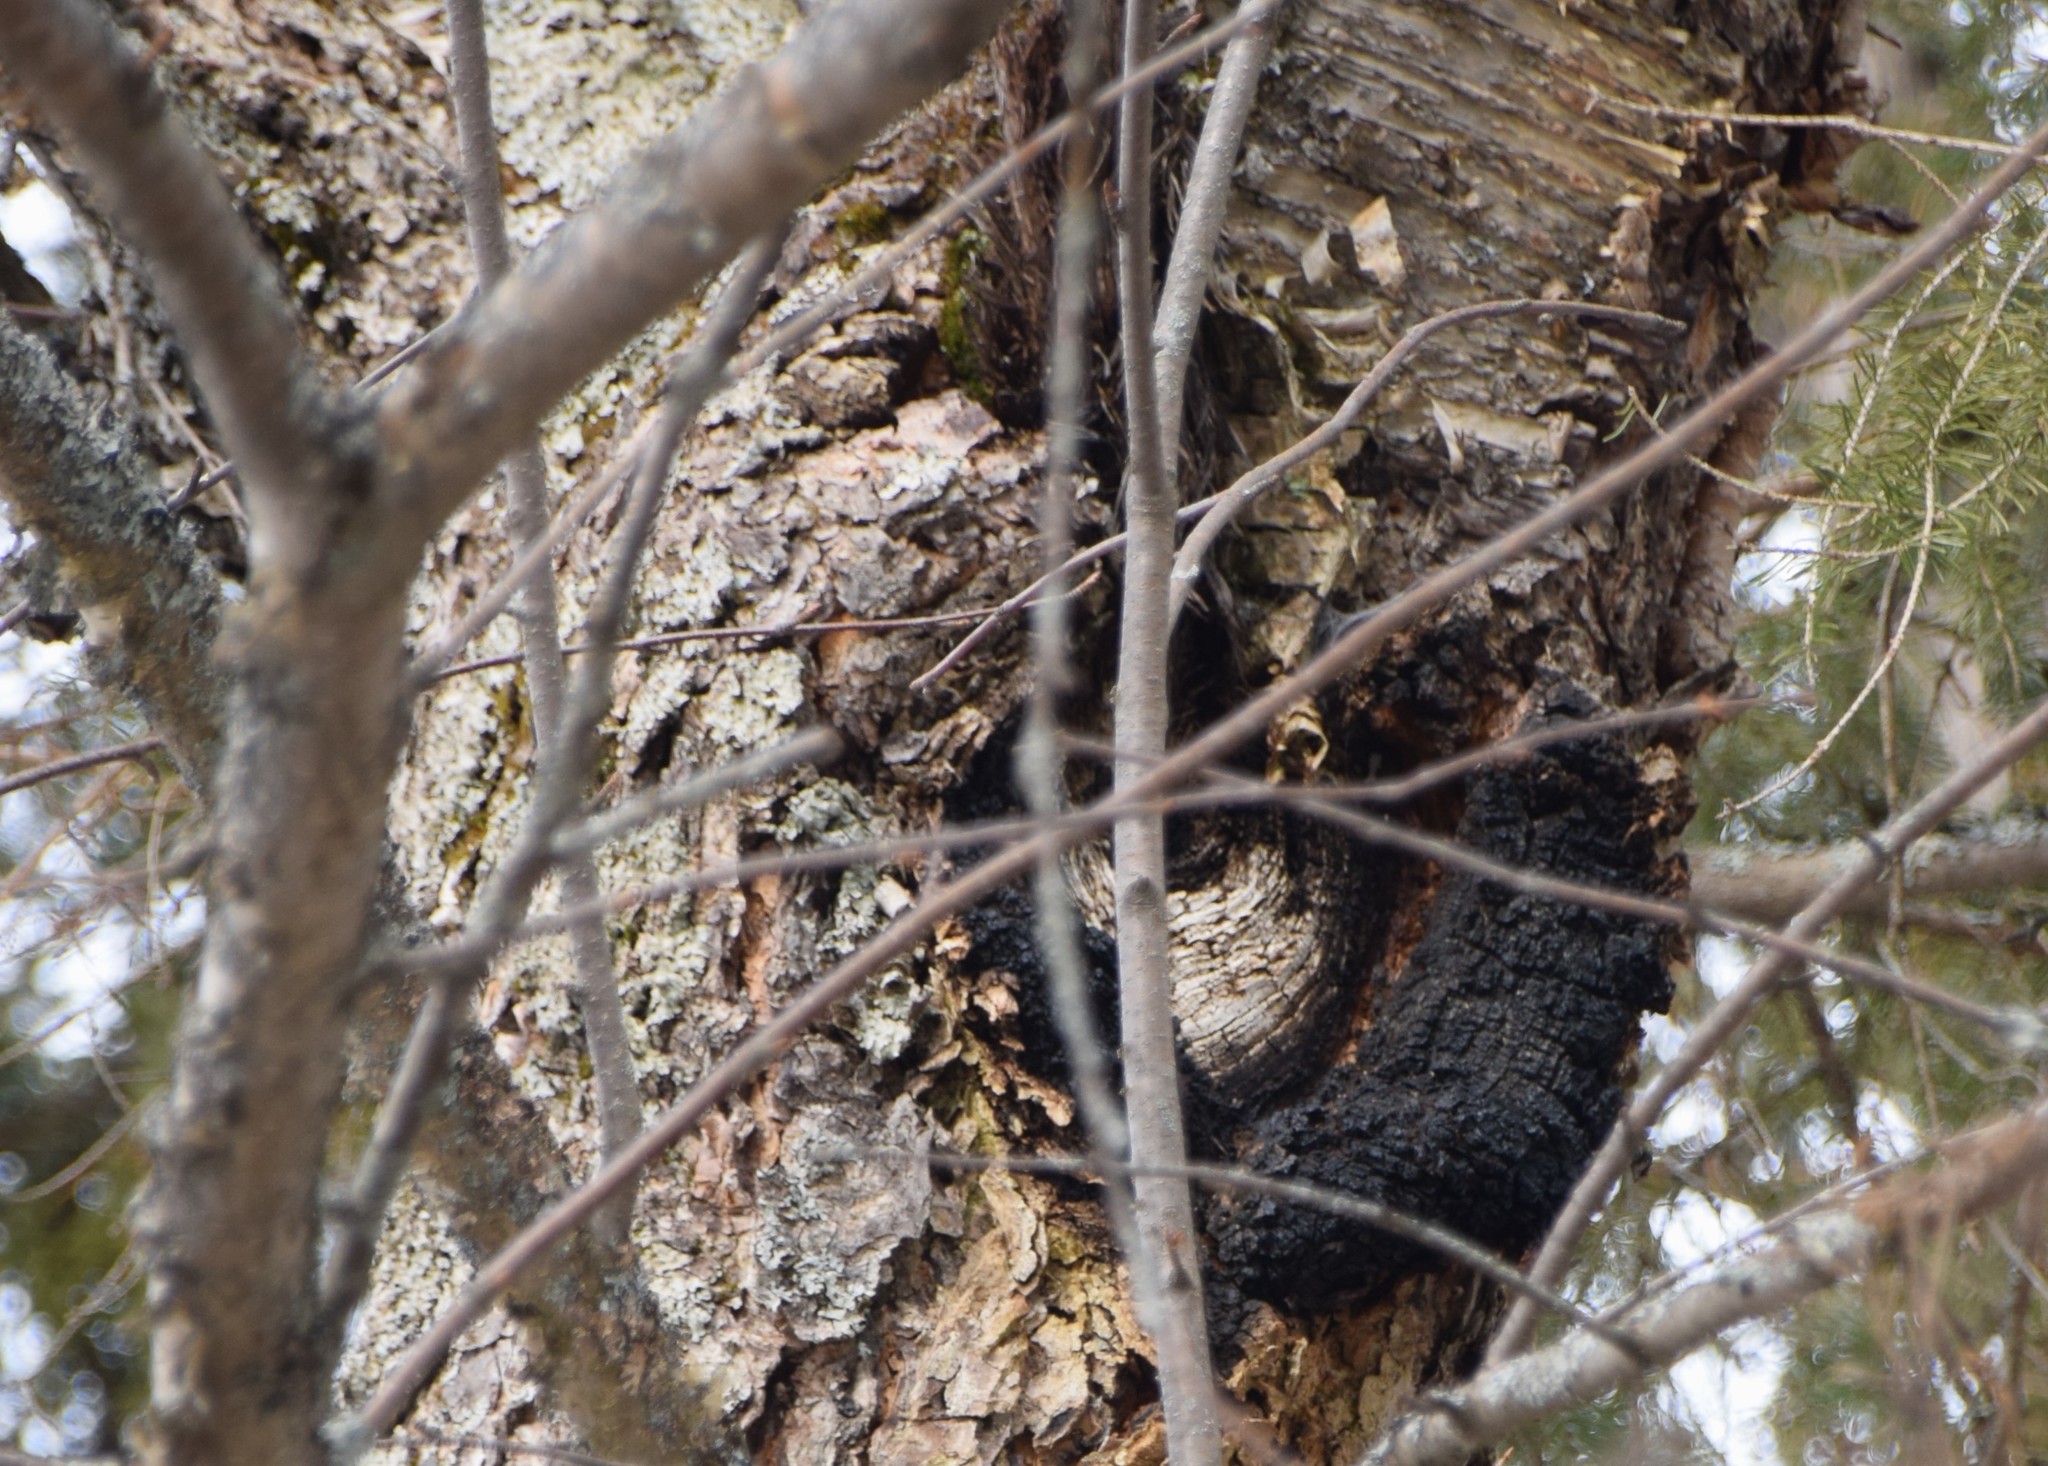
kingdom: Fungi
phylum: Basidiomycota
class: Agaricomycetes
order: Hymenochaetales
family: Hymenochaetaceae
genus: Inonotus
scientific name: Inonotus obliquus
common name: Chaga
